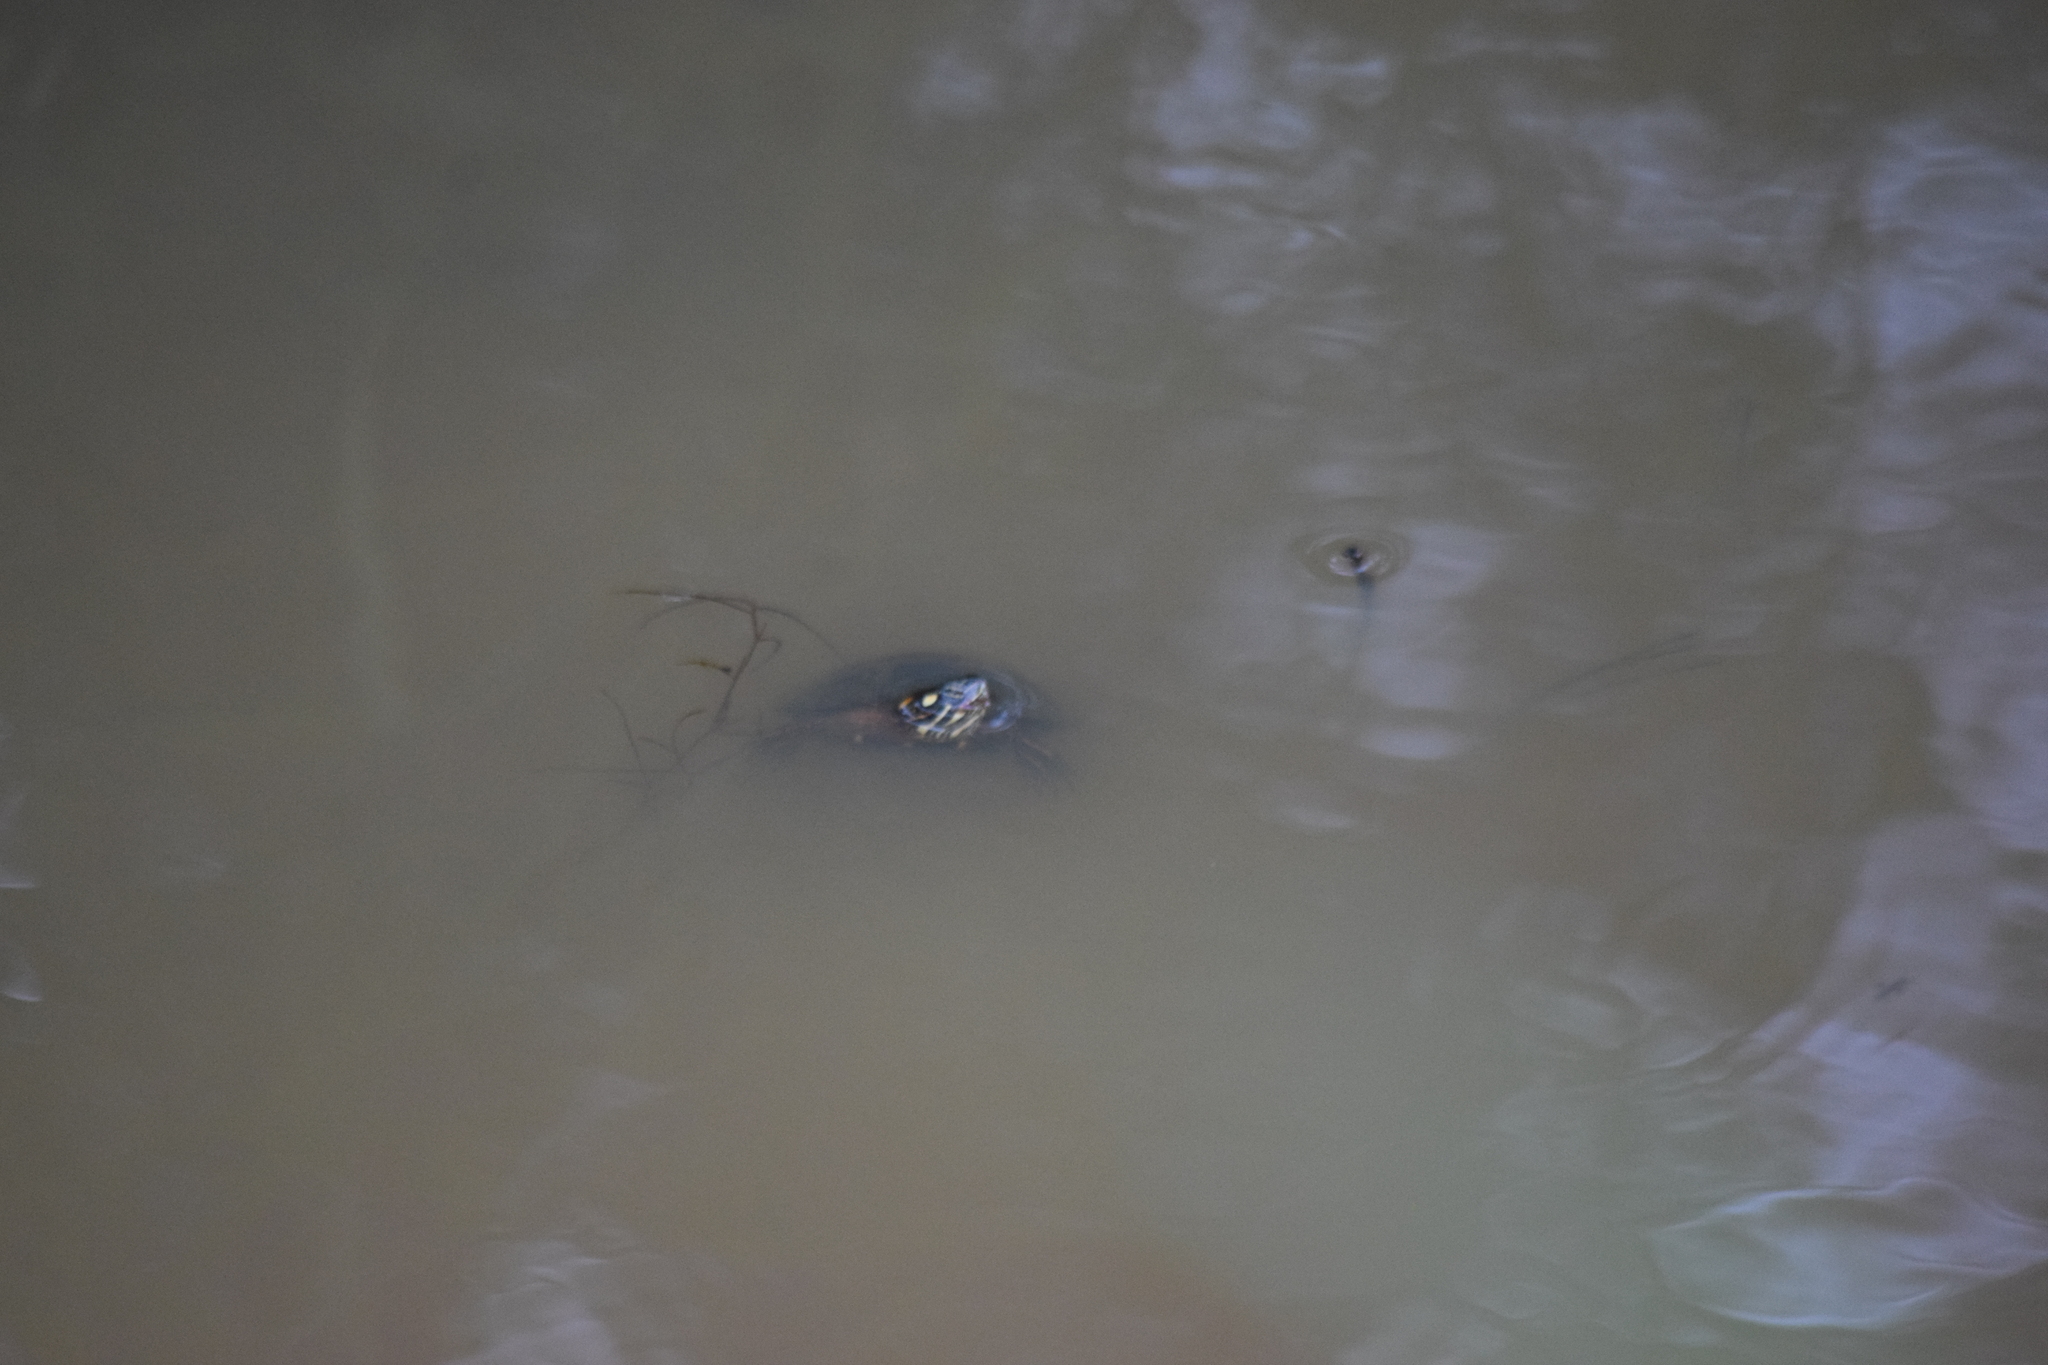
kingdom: Animalia
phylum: Chordata
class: Testudines
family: Emydidae
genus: Chrysemys
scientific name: Chrysemys picta
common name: Painted turtle
